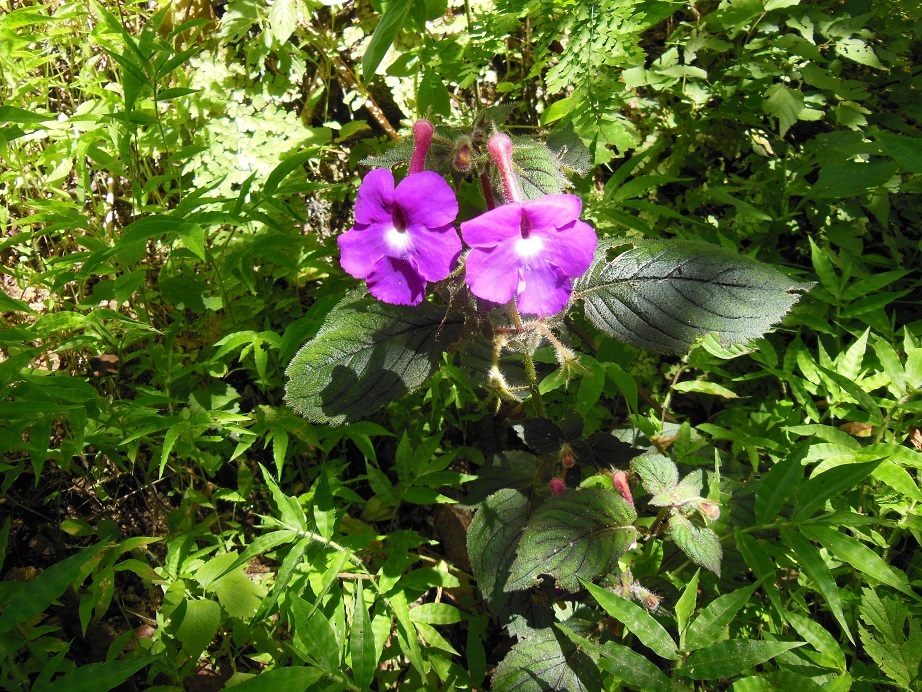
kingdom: Plantae
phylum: Tracheophyta
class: Magnoliopsida
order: Lamiales
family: Gesneriaceae
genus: Achimenes
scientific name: Achimenes grandiflora
